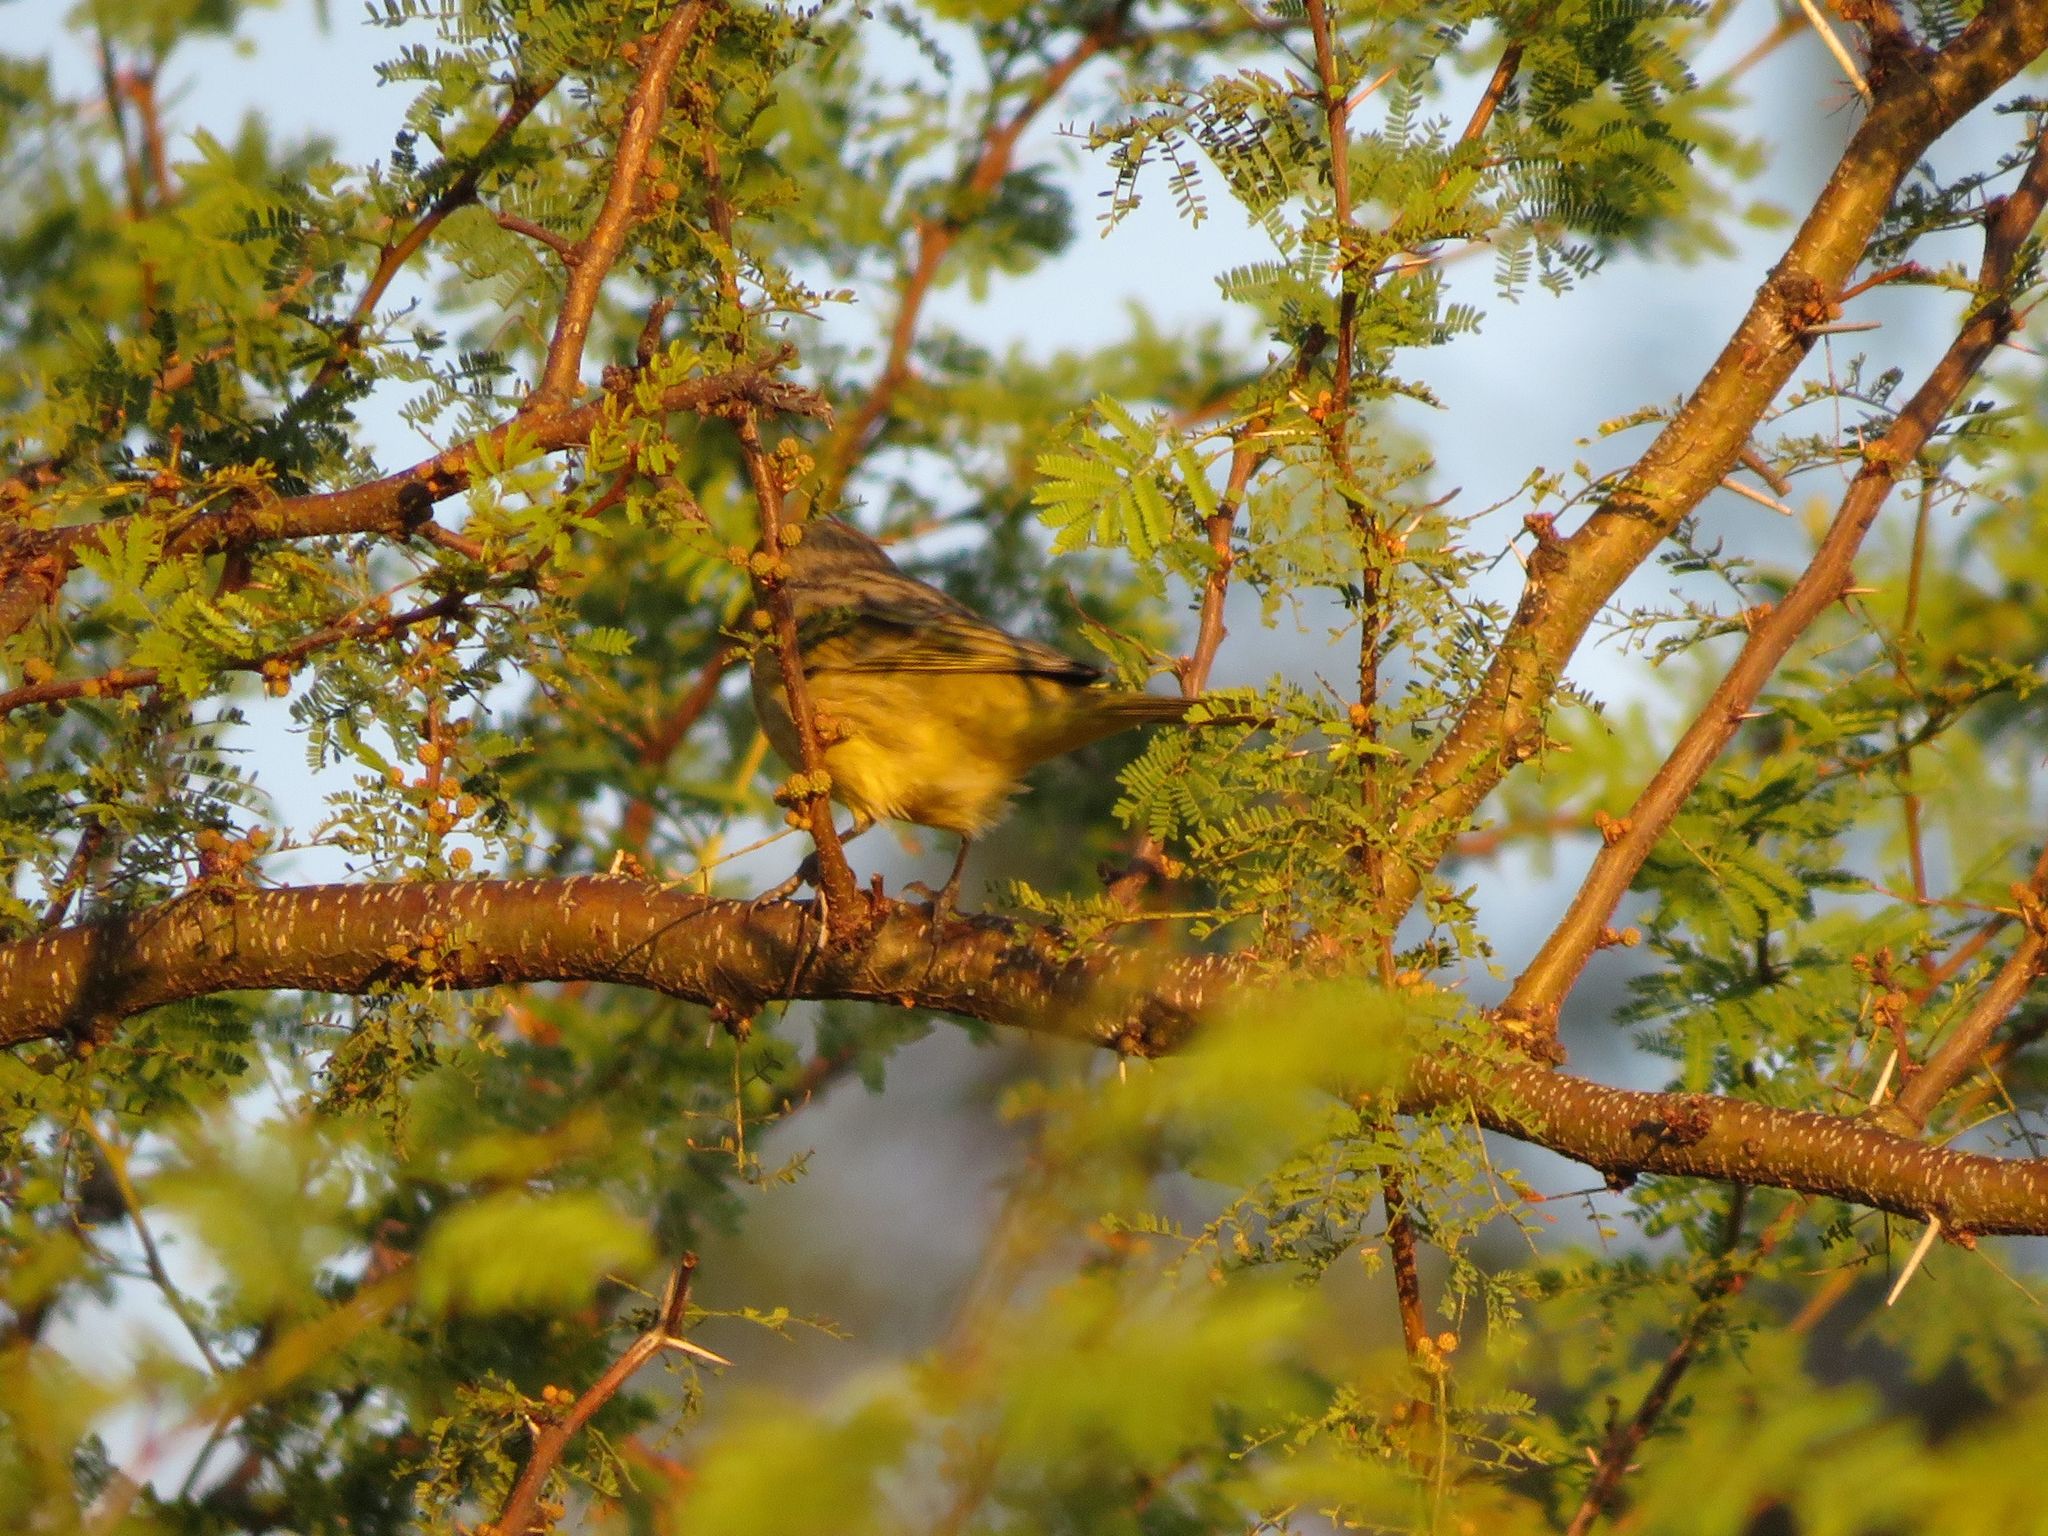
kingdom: Animalia
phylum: Chordata
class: Aves
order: Passeriformes
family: Thraupidae
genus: Sicalis
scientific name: Sicalis flaveola
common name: Saffron finch
